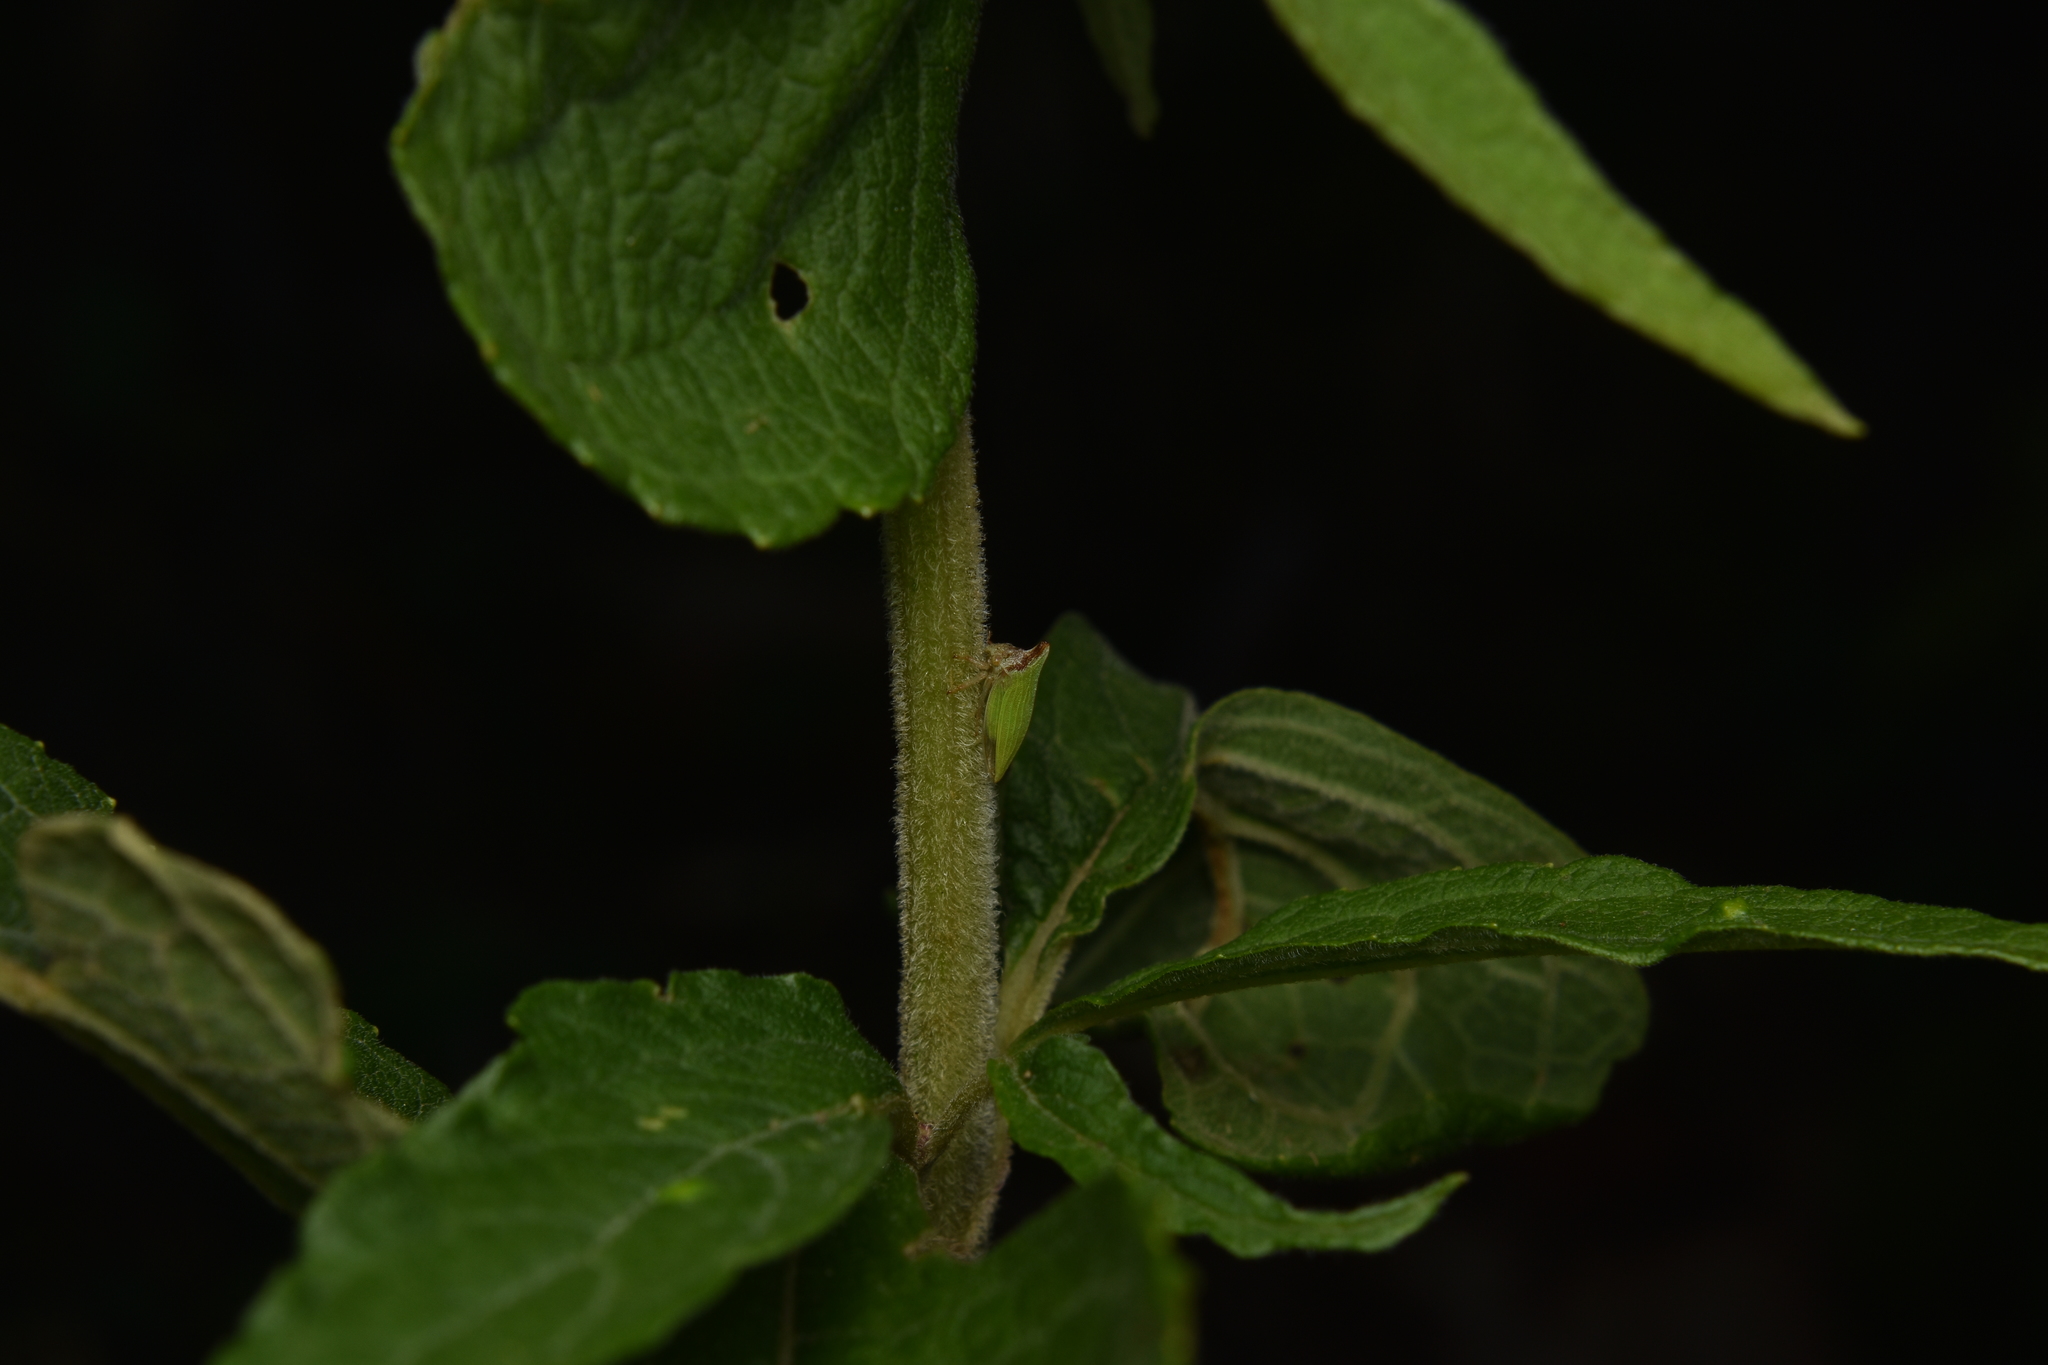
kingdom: Animalia
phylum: Arthropoda
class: Insecta
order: Hemiptera
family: Membracidae
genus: Metheisa
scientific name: Metheisa lucillodes
